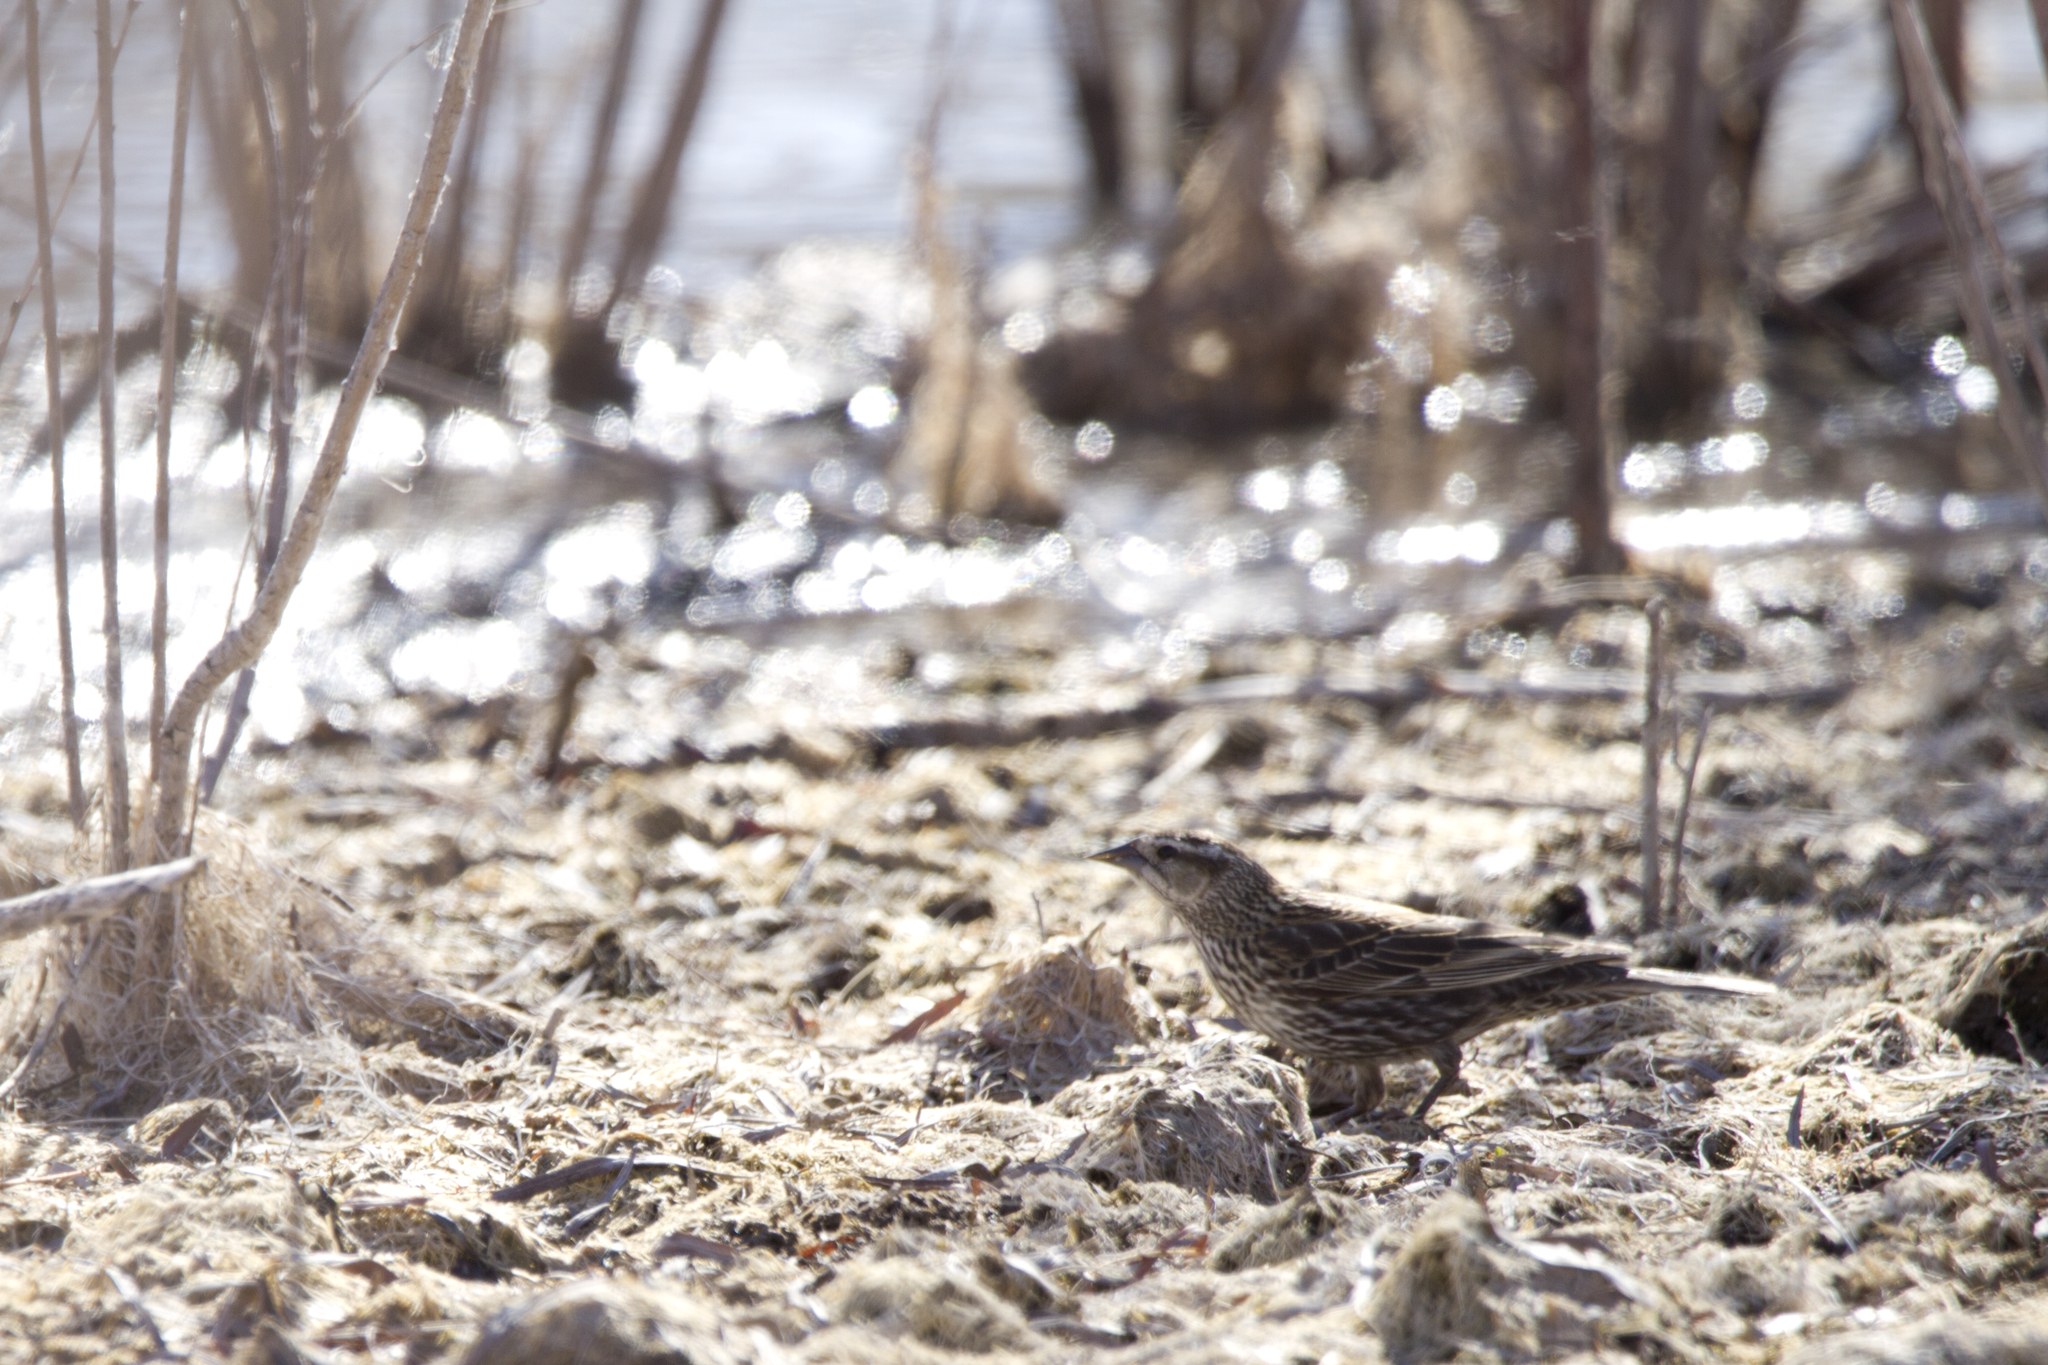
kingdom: Animalia
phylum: Chordata
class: Aves
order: Passeriformes
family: Icteridae
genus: Agelaius
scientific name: Agelaius phoeniceus
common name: Red-winged blackbird
